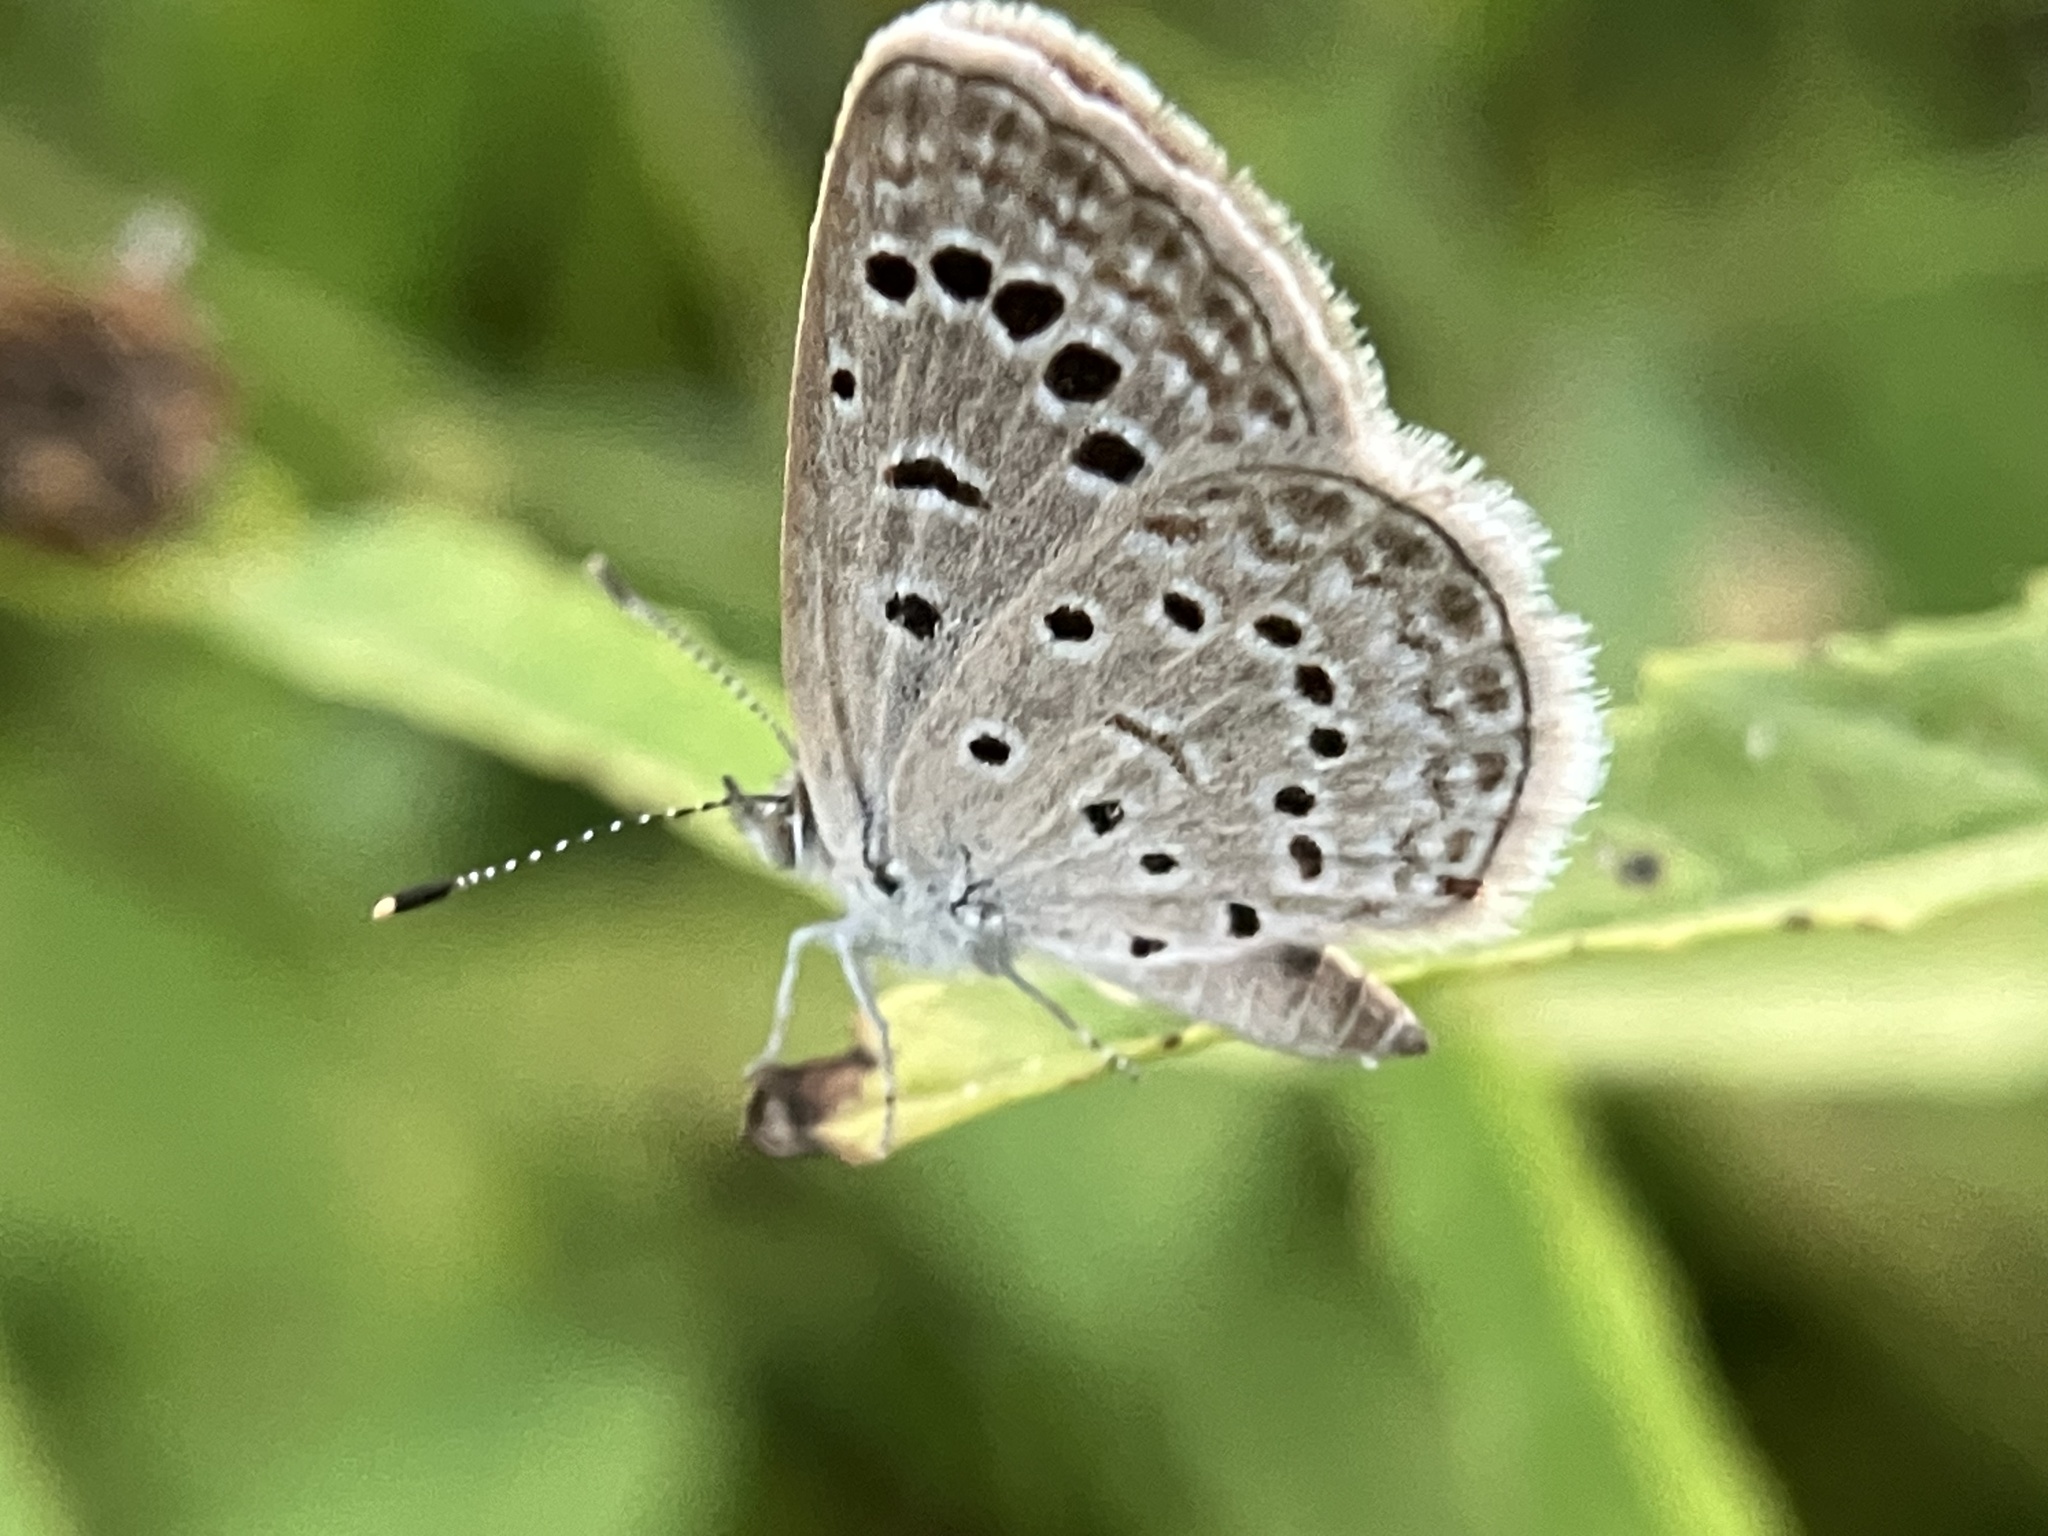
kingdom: Animalia
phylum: Arthropoda
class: Insecta
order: Lepidoptera
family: Lycaenidae
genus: Zizeeria
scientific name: Zizeeria karsandra
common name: Dark grass blue
